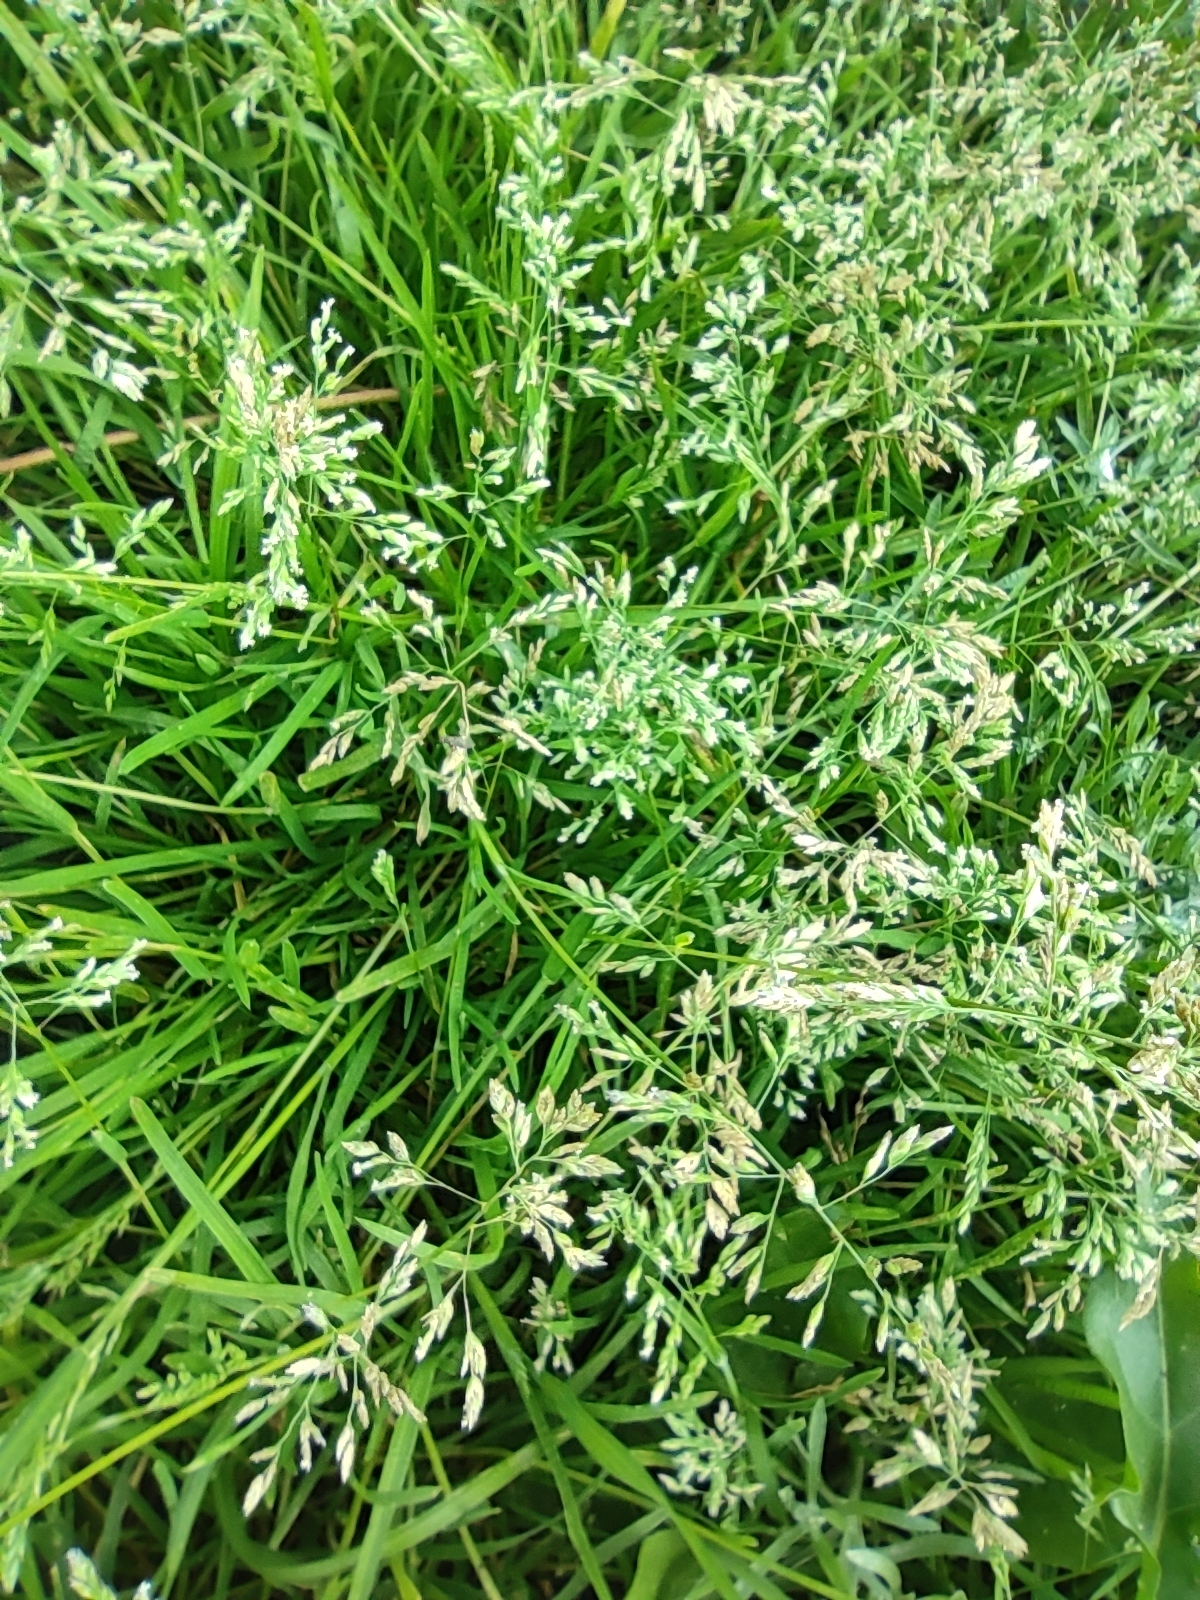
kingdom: Plantae
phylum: Tracheophyta
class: Liliopsida
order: Poales
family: Poaceae
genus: Poa
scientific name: Poa annua
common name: Annual bluegrass
